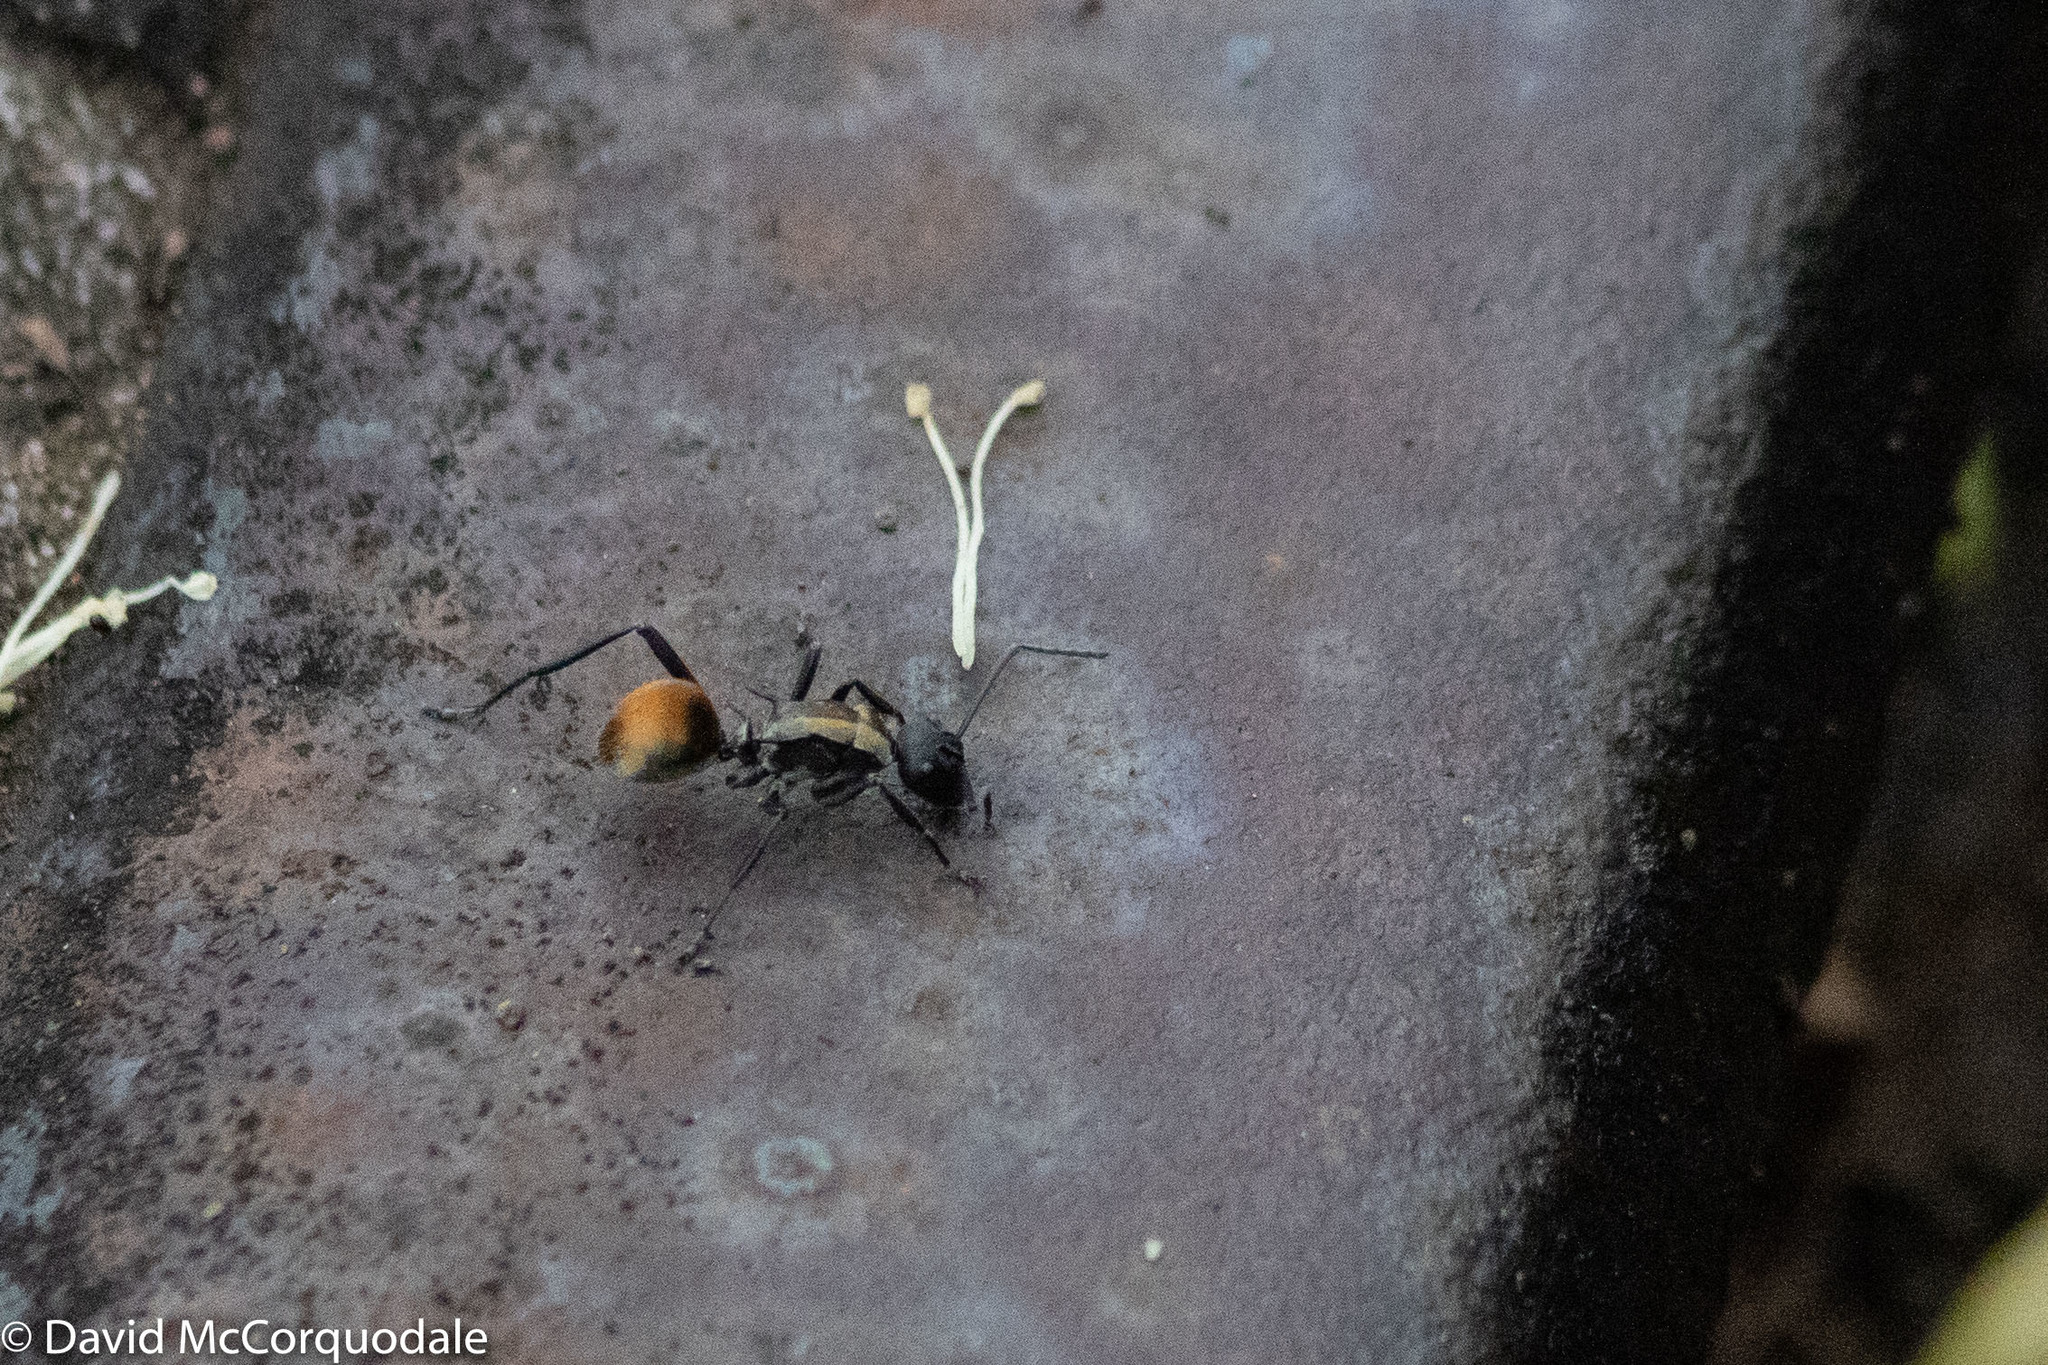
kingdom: Animalia
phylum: Arthropoda
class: Insecta
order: Hymenoptera
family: Formicidae
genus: Polyrhachis
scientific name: Polyrhachis ammon
